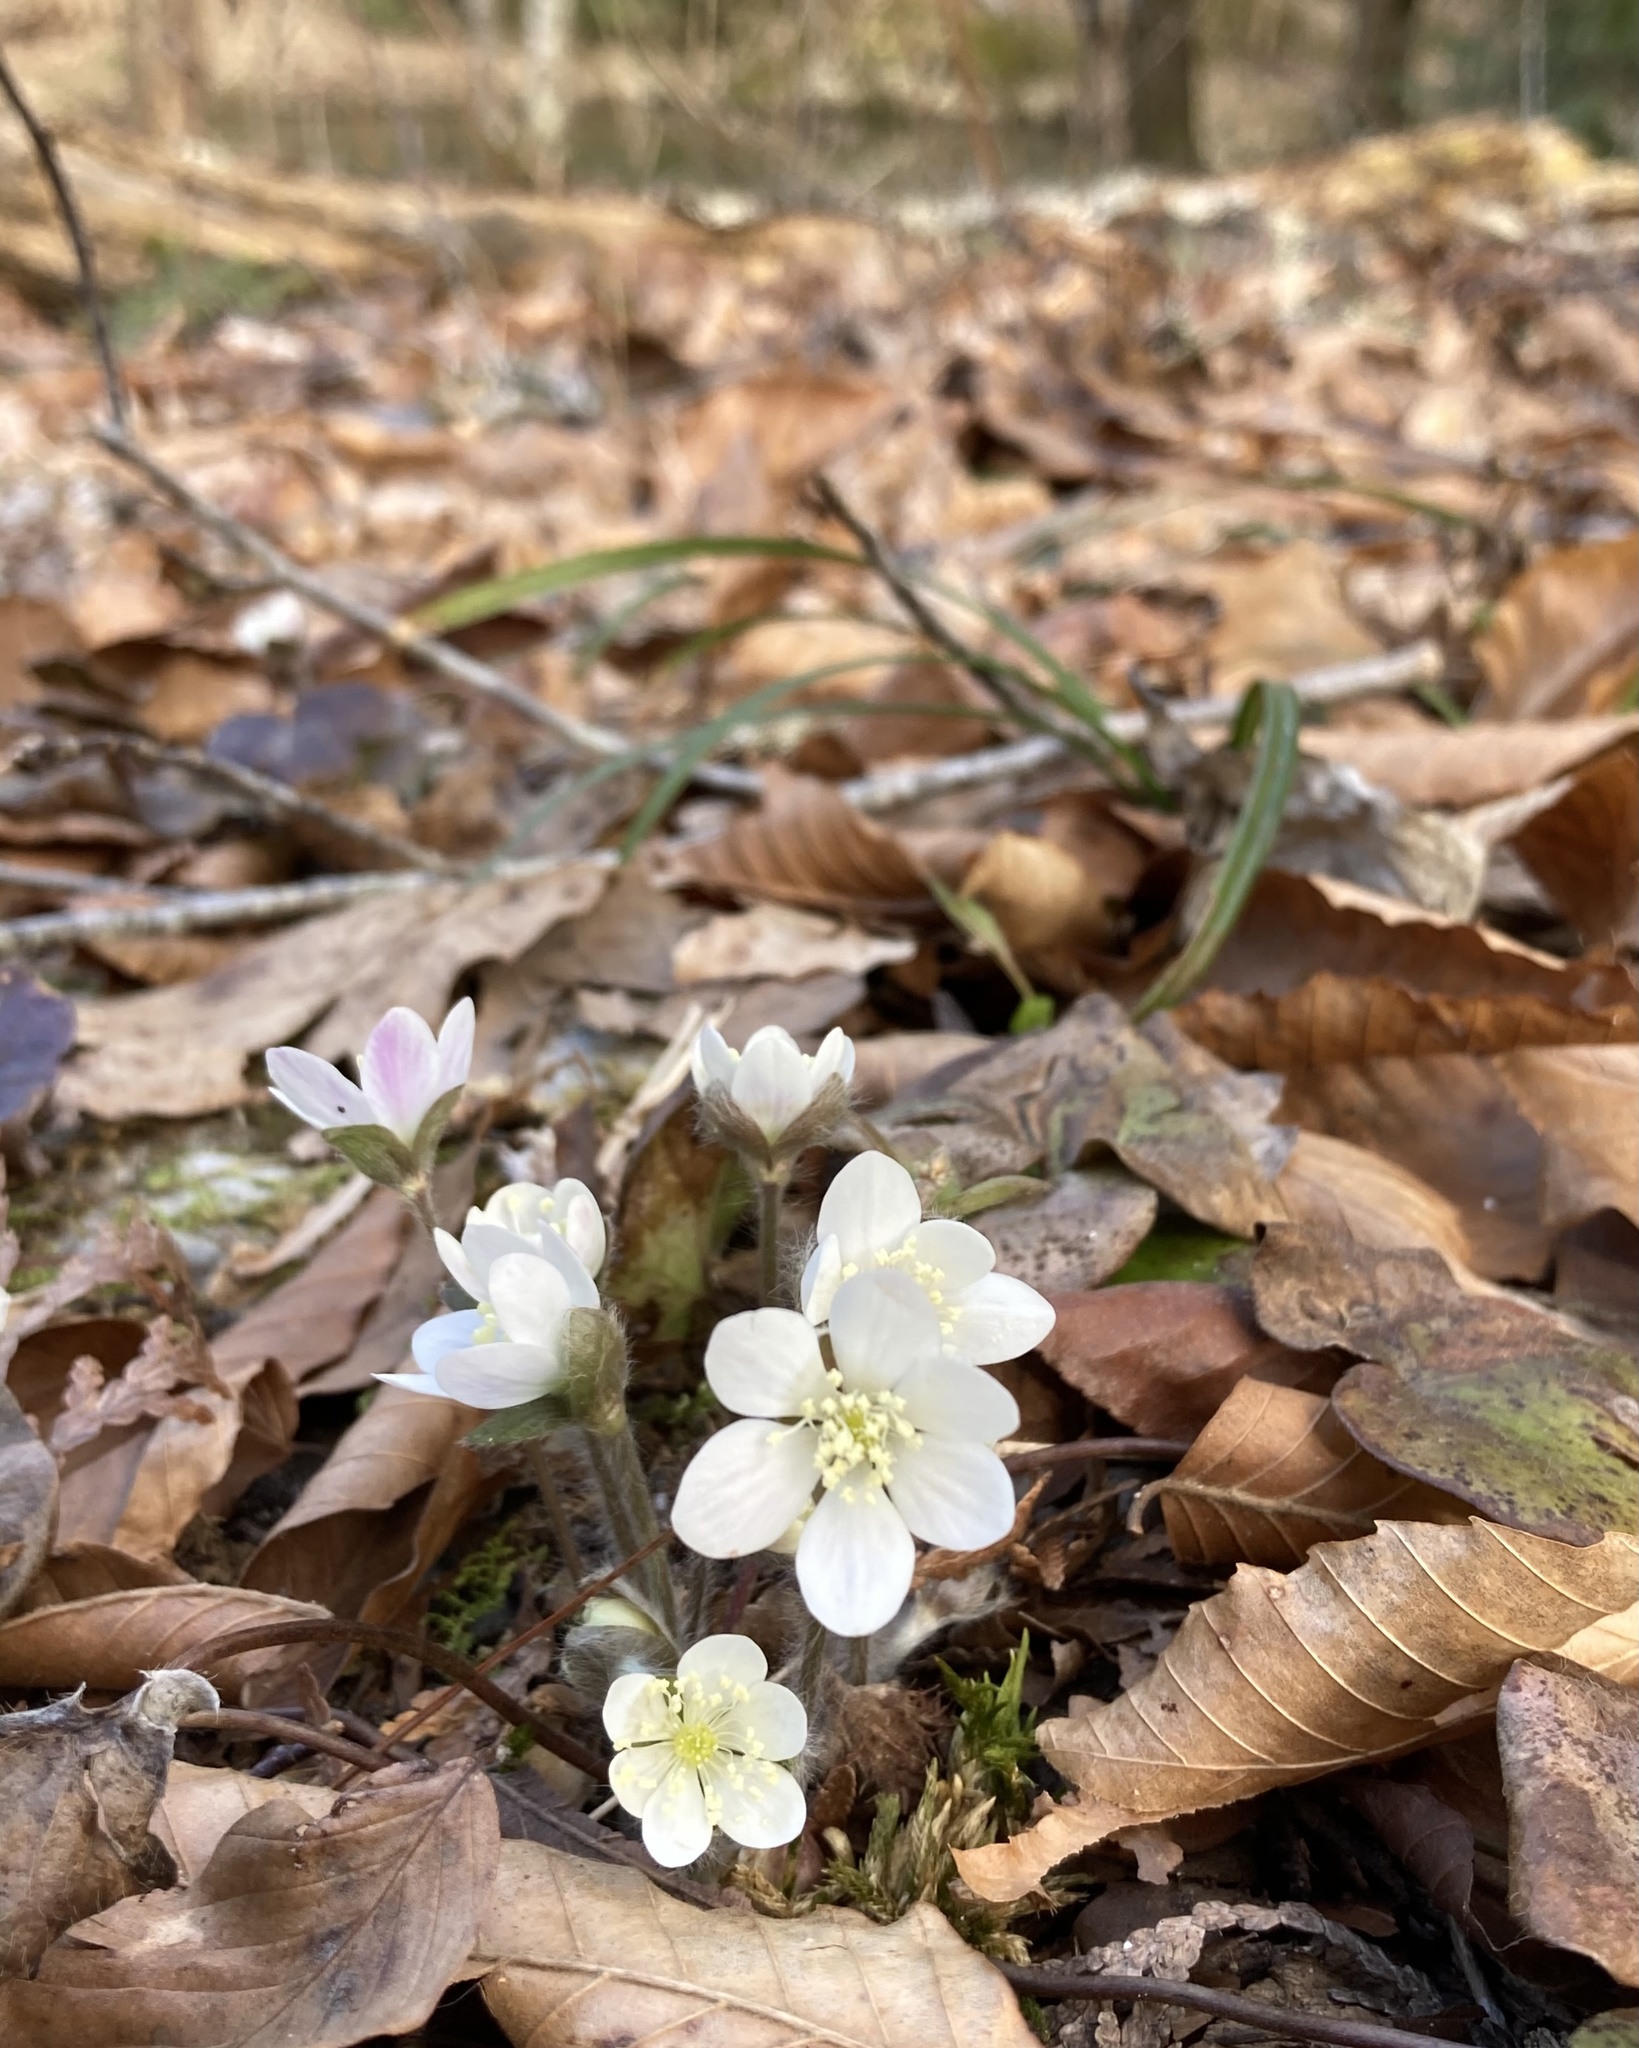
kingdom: Plantae
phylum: Tracheophyta
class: Magnoliopsida
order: Ranunculales
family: Ranunculaceae
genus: Hepatica
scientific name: Hepatica americana
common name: American hepatica
